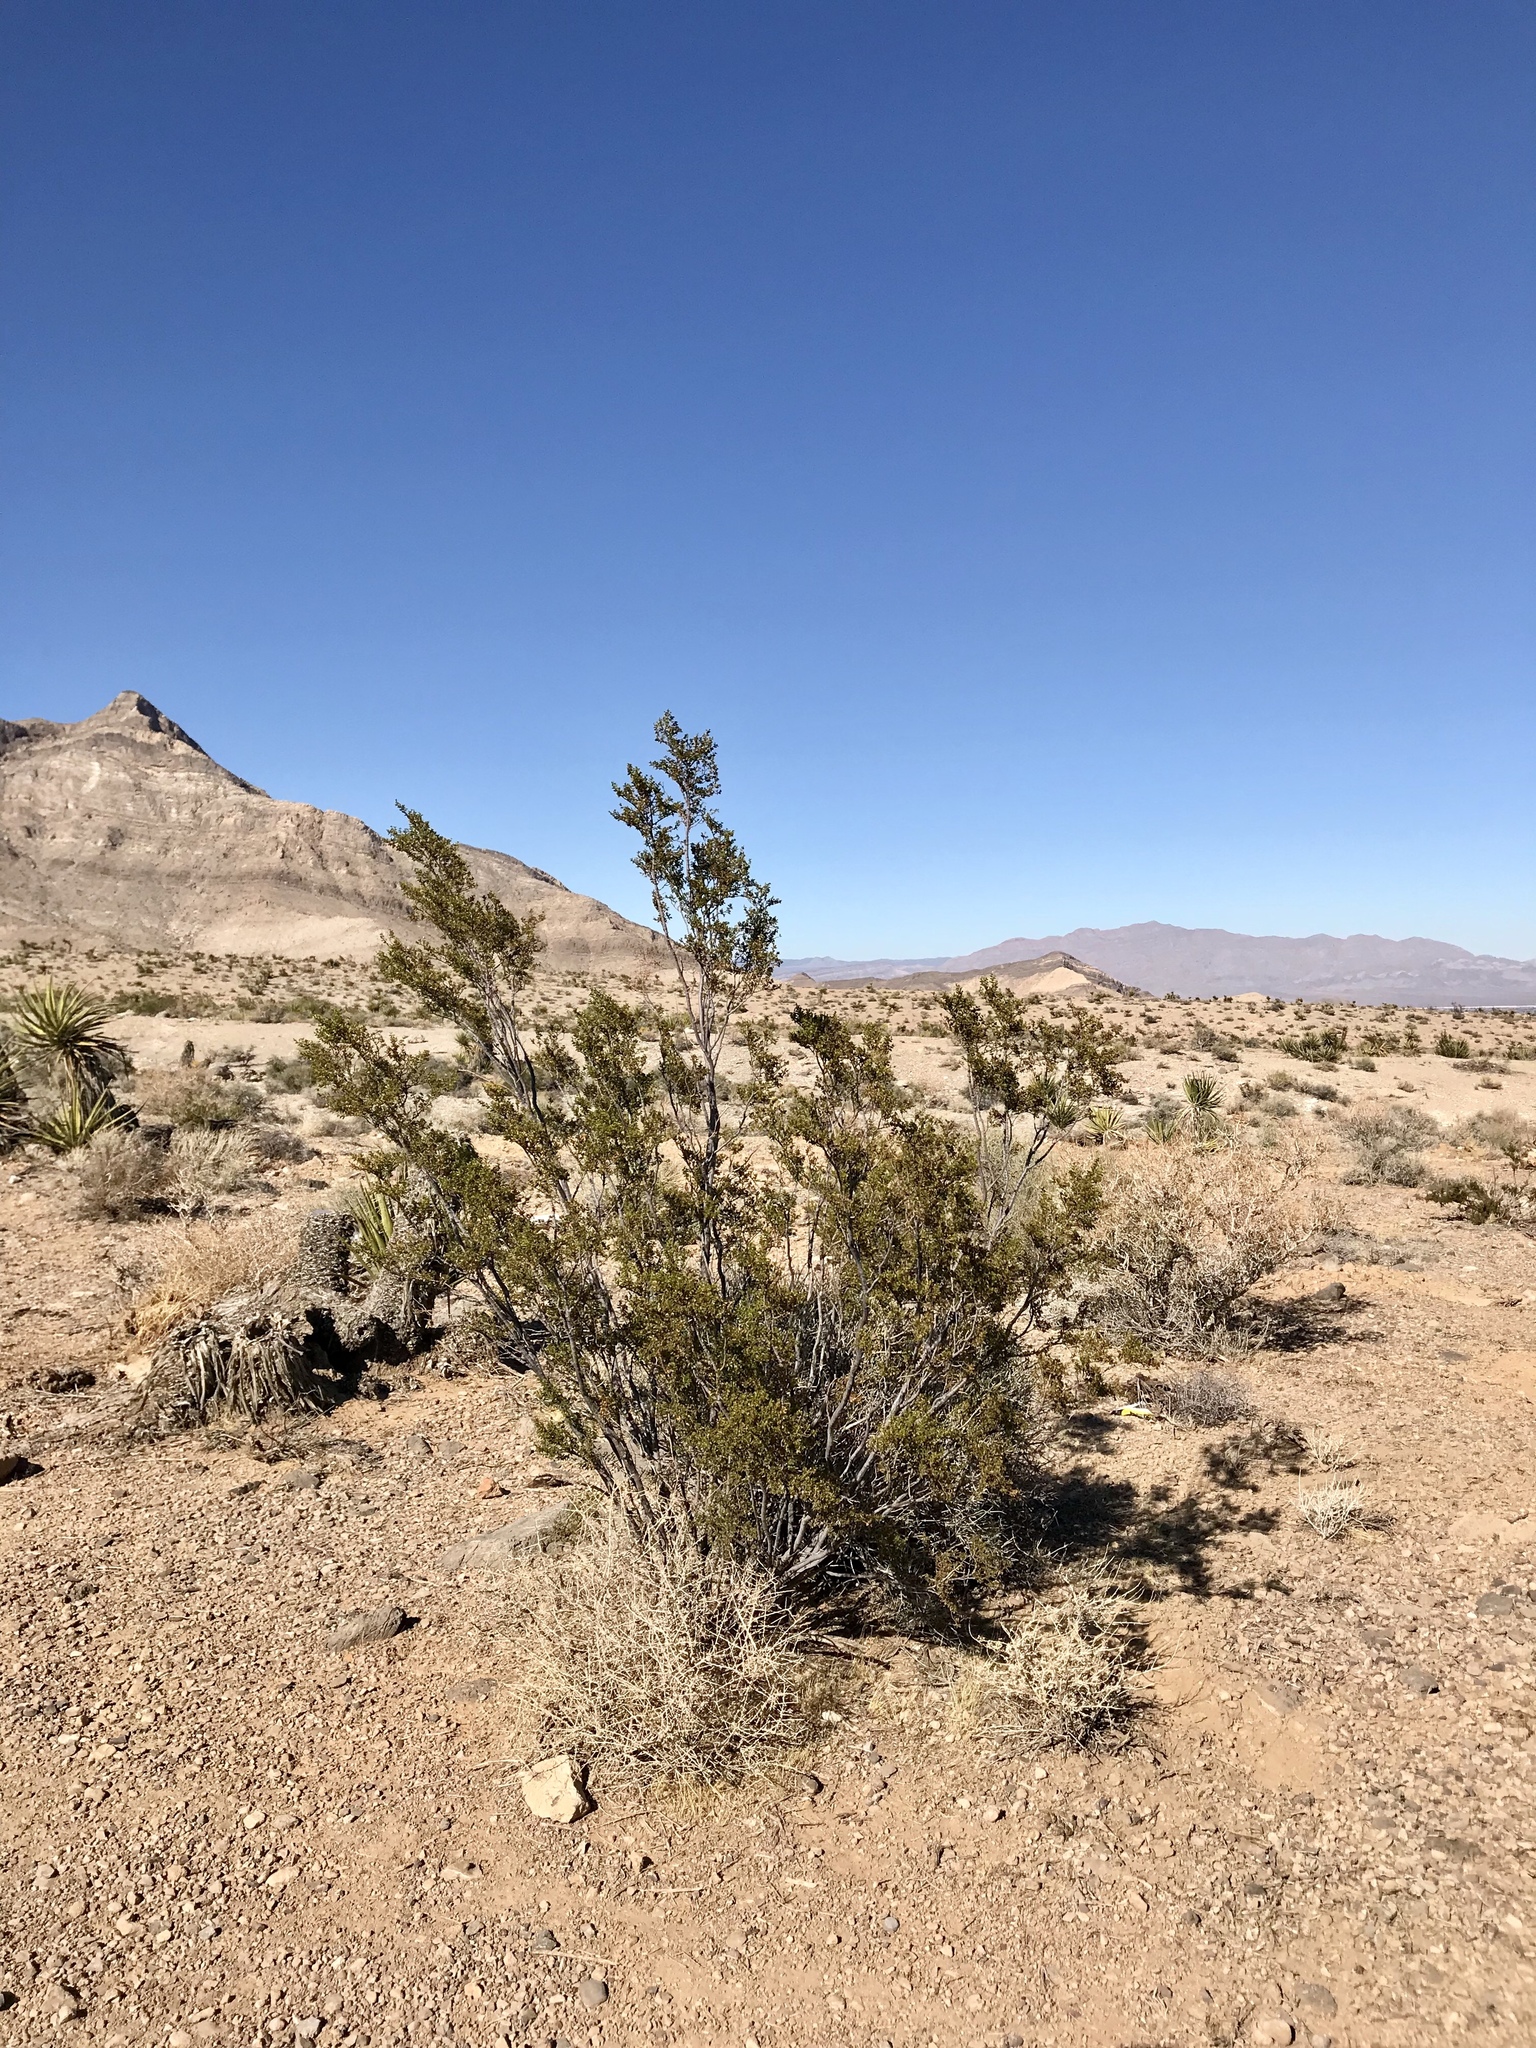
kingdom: Plantae
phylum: Tracheophyta
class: Magnoliopsida
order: Zygophyllales
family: Zygophyllaceae
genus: Larrea
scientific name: Larrea tridentata
